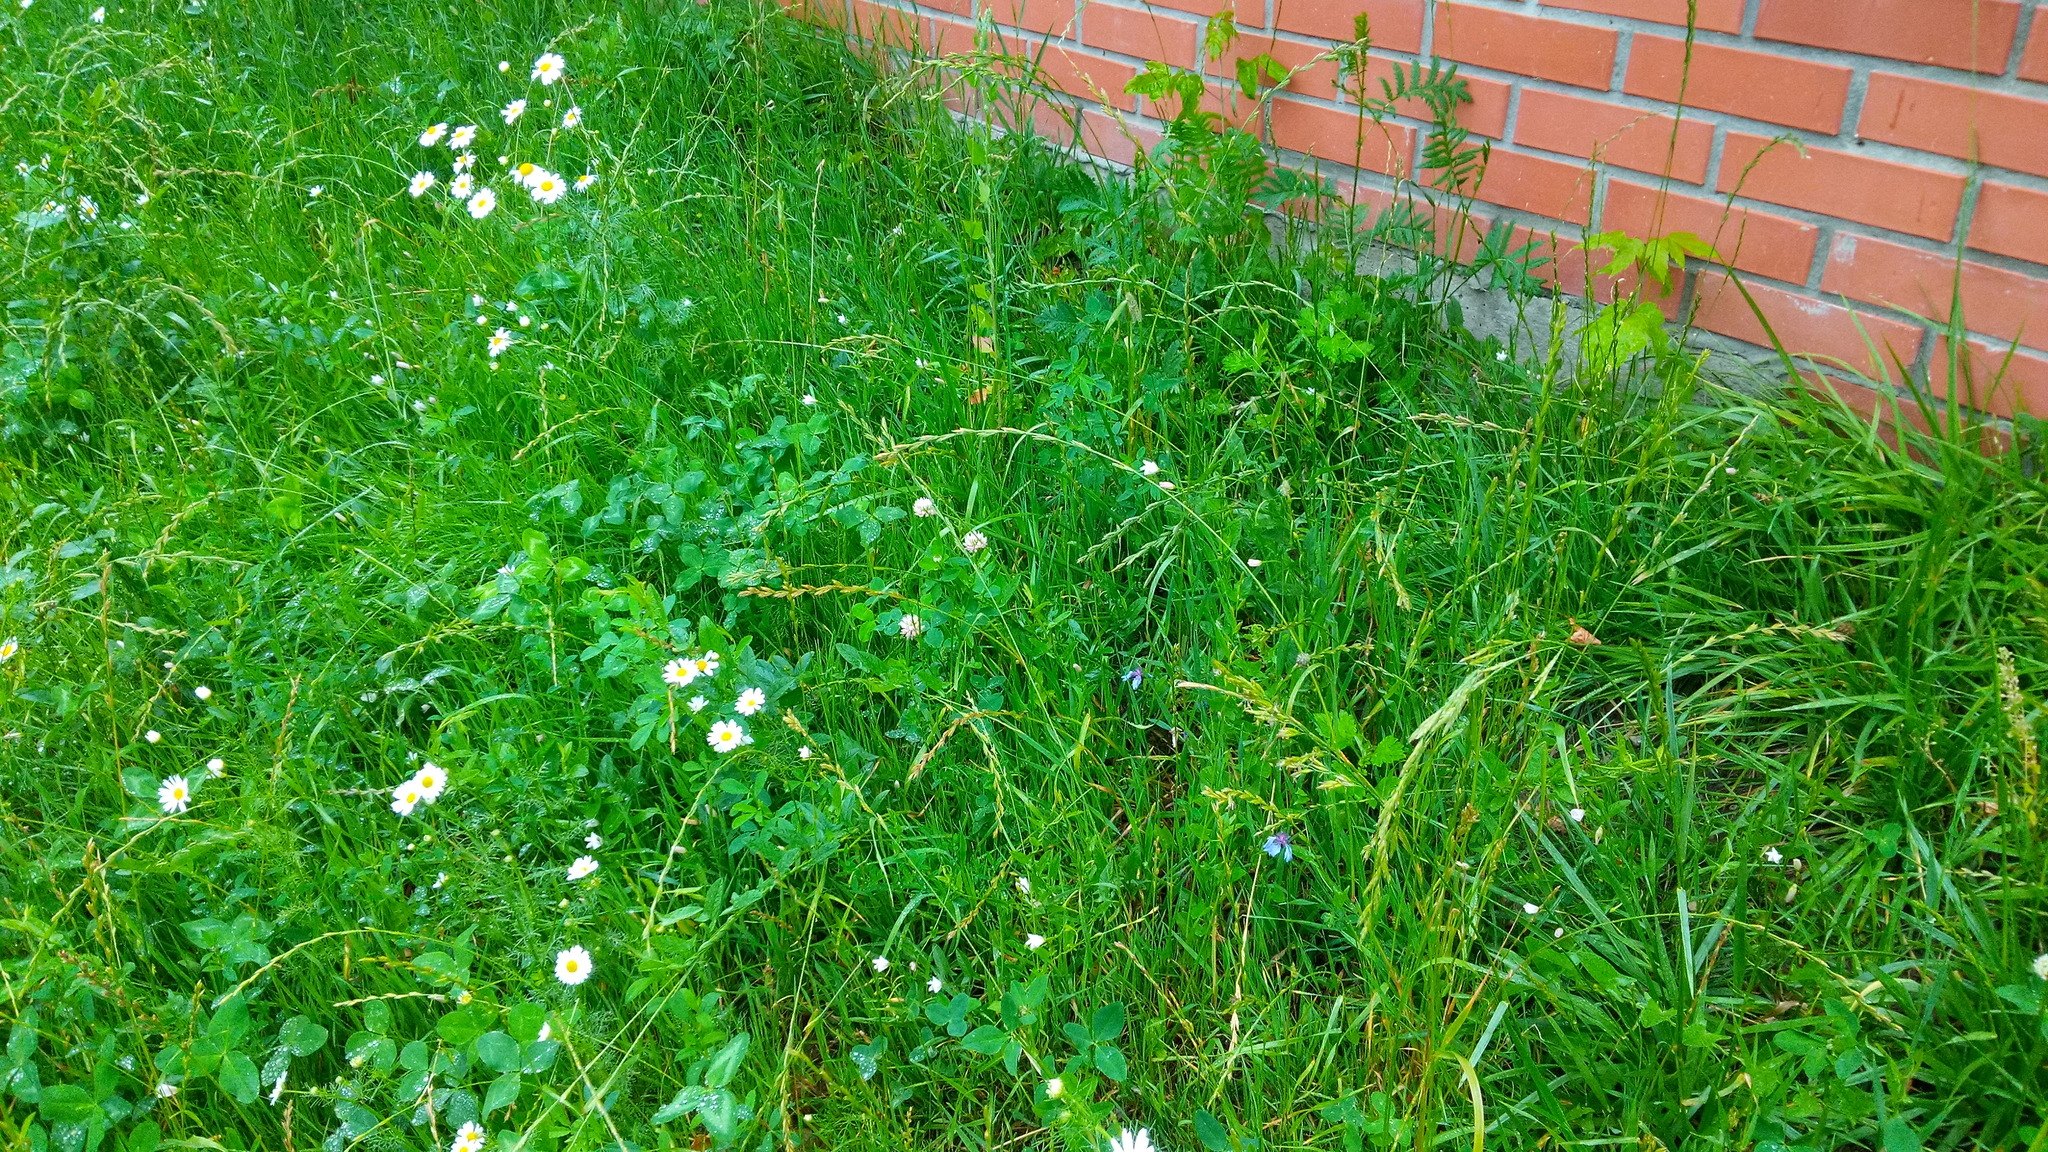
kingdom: Plantae
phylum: Tracheophyta
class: Magnoliopsida
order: Asterales
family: Asteraceae
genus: Centaurea
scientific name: Centaurea cyanus
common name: Cornflower
